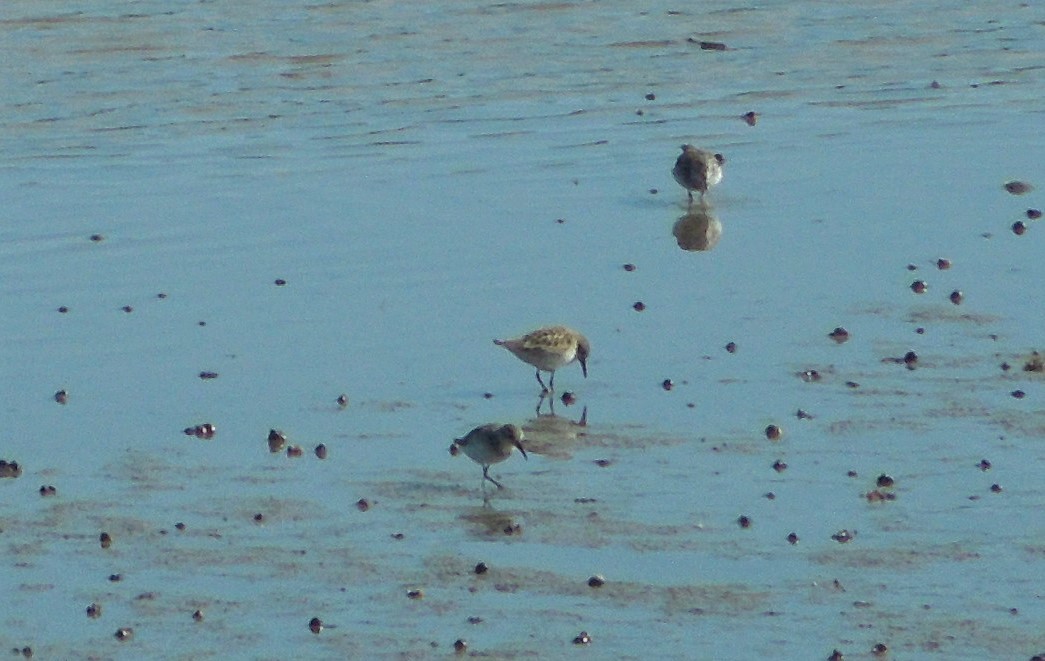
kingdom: Animalia
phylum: Chordata
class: Aves
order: Charadriiformes
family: Scolopacidae
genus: Calidris
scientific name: Calidris pusilla
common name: Semipalmated sandpiper
